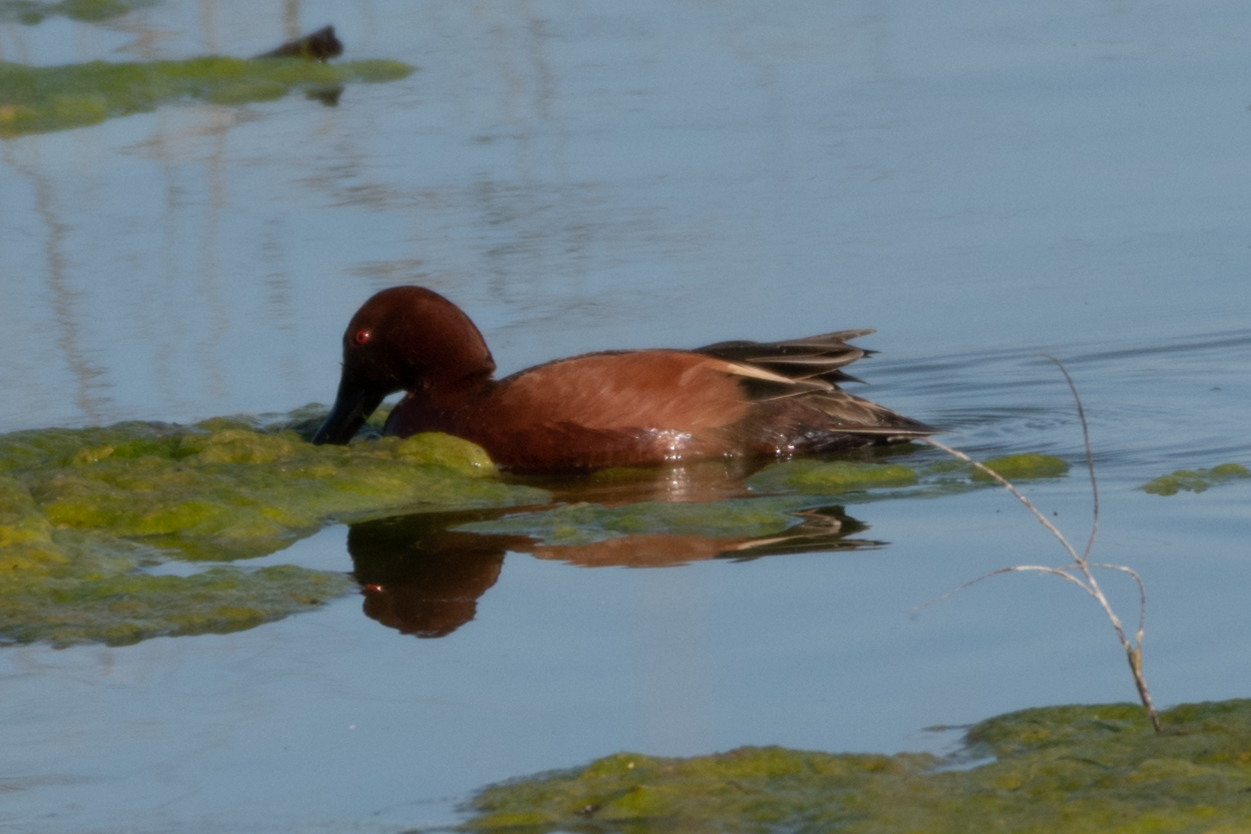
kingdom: Animalia
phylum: Chordata
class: Aves
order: Anseriformes
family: Anatidae
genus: Spatula
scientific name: Spatula cyanoptera
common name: Cinnamon teal
